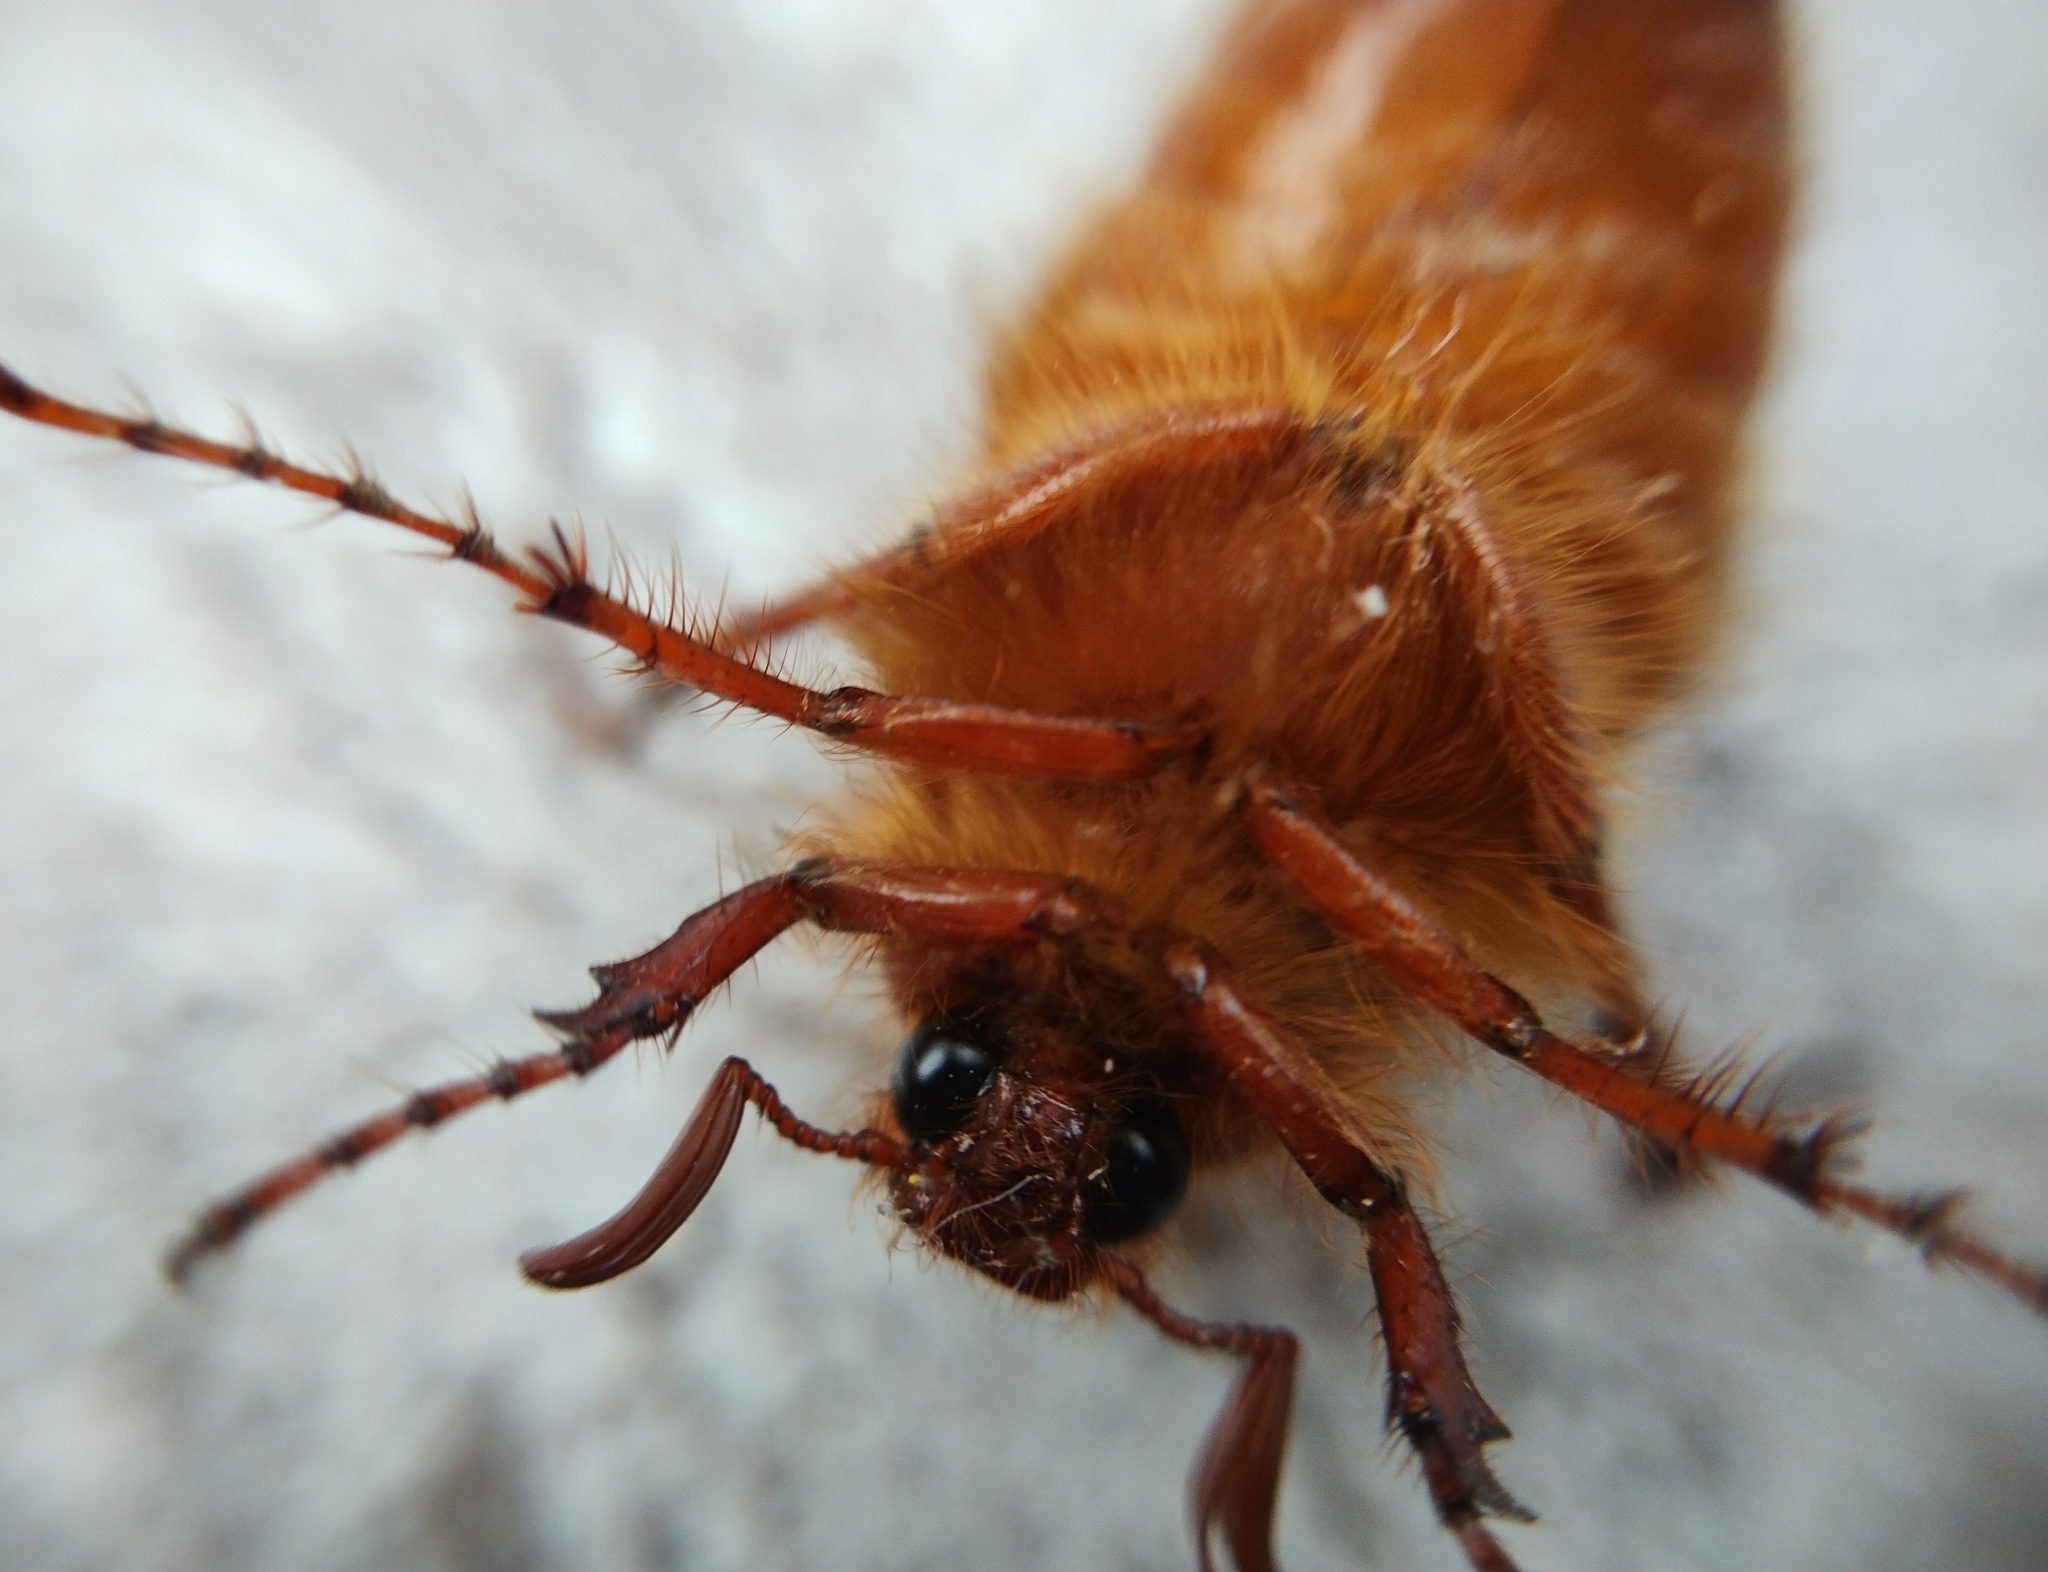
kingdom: Animalia
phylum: Arthropoda
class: Insecta
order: Coleoptera
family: Scarabaeidae
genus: Holochelus
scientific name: Holochelus aequinoctialis
